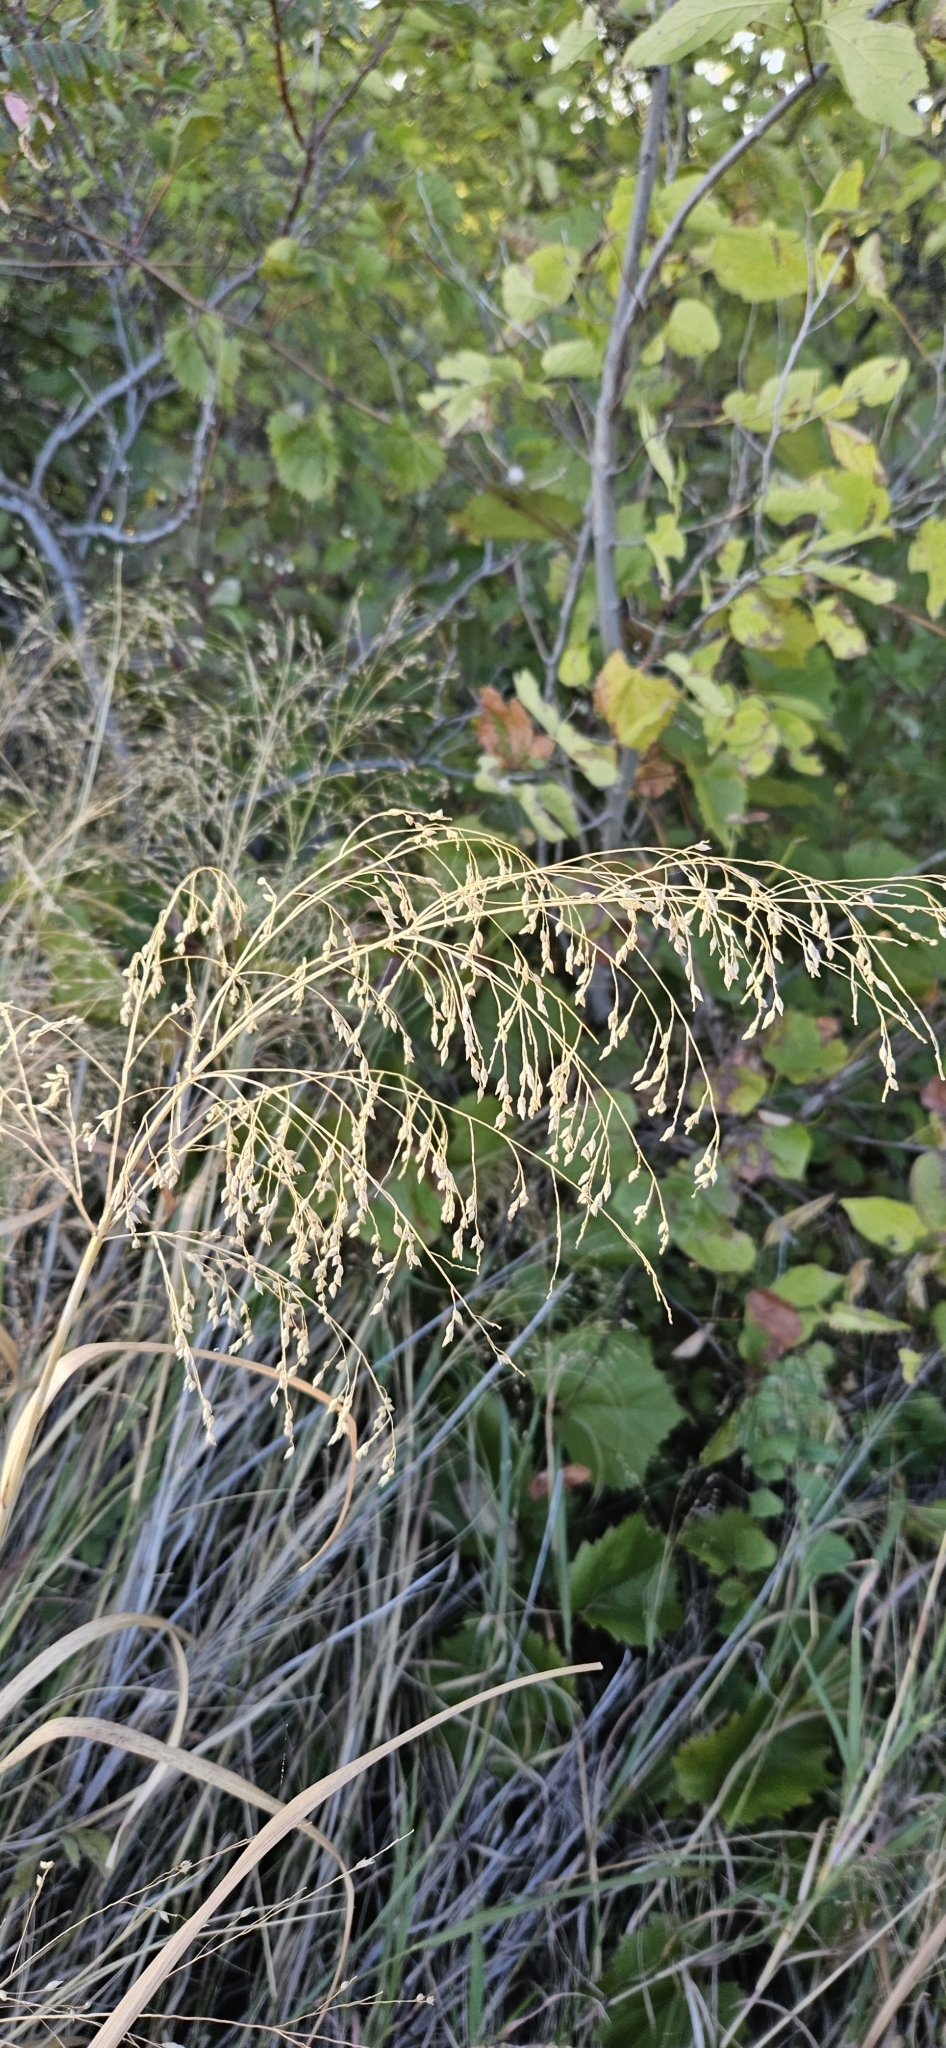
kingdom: Plantae
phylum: Tracheophyta
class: Liliopsida
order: Poales
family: Poaceae
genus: Panicum
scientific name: Panicum virgatum
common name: Switchgrass
